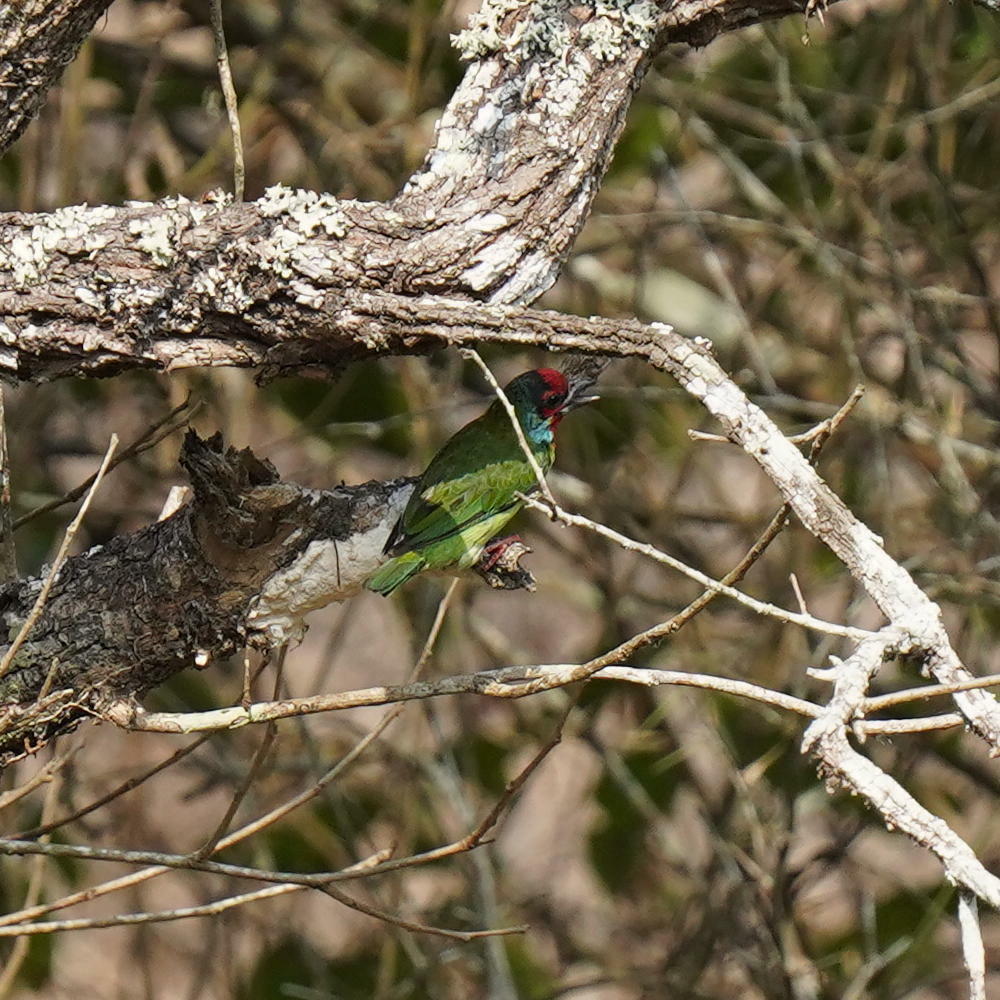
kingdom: Animalia
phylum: Chordata
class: Aves
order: Piciformes
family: Megalaimidae
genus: Psilopogon
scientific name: Psilopogon malabaricus
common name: Malabar barbet
